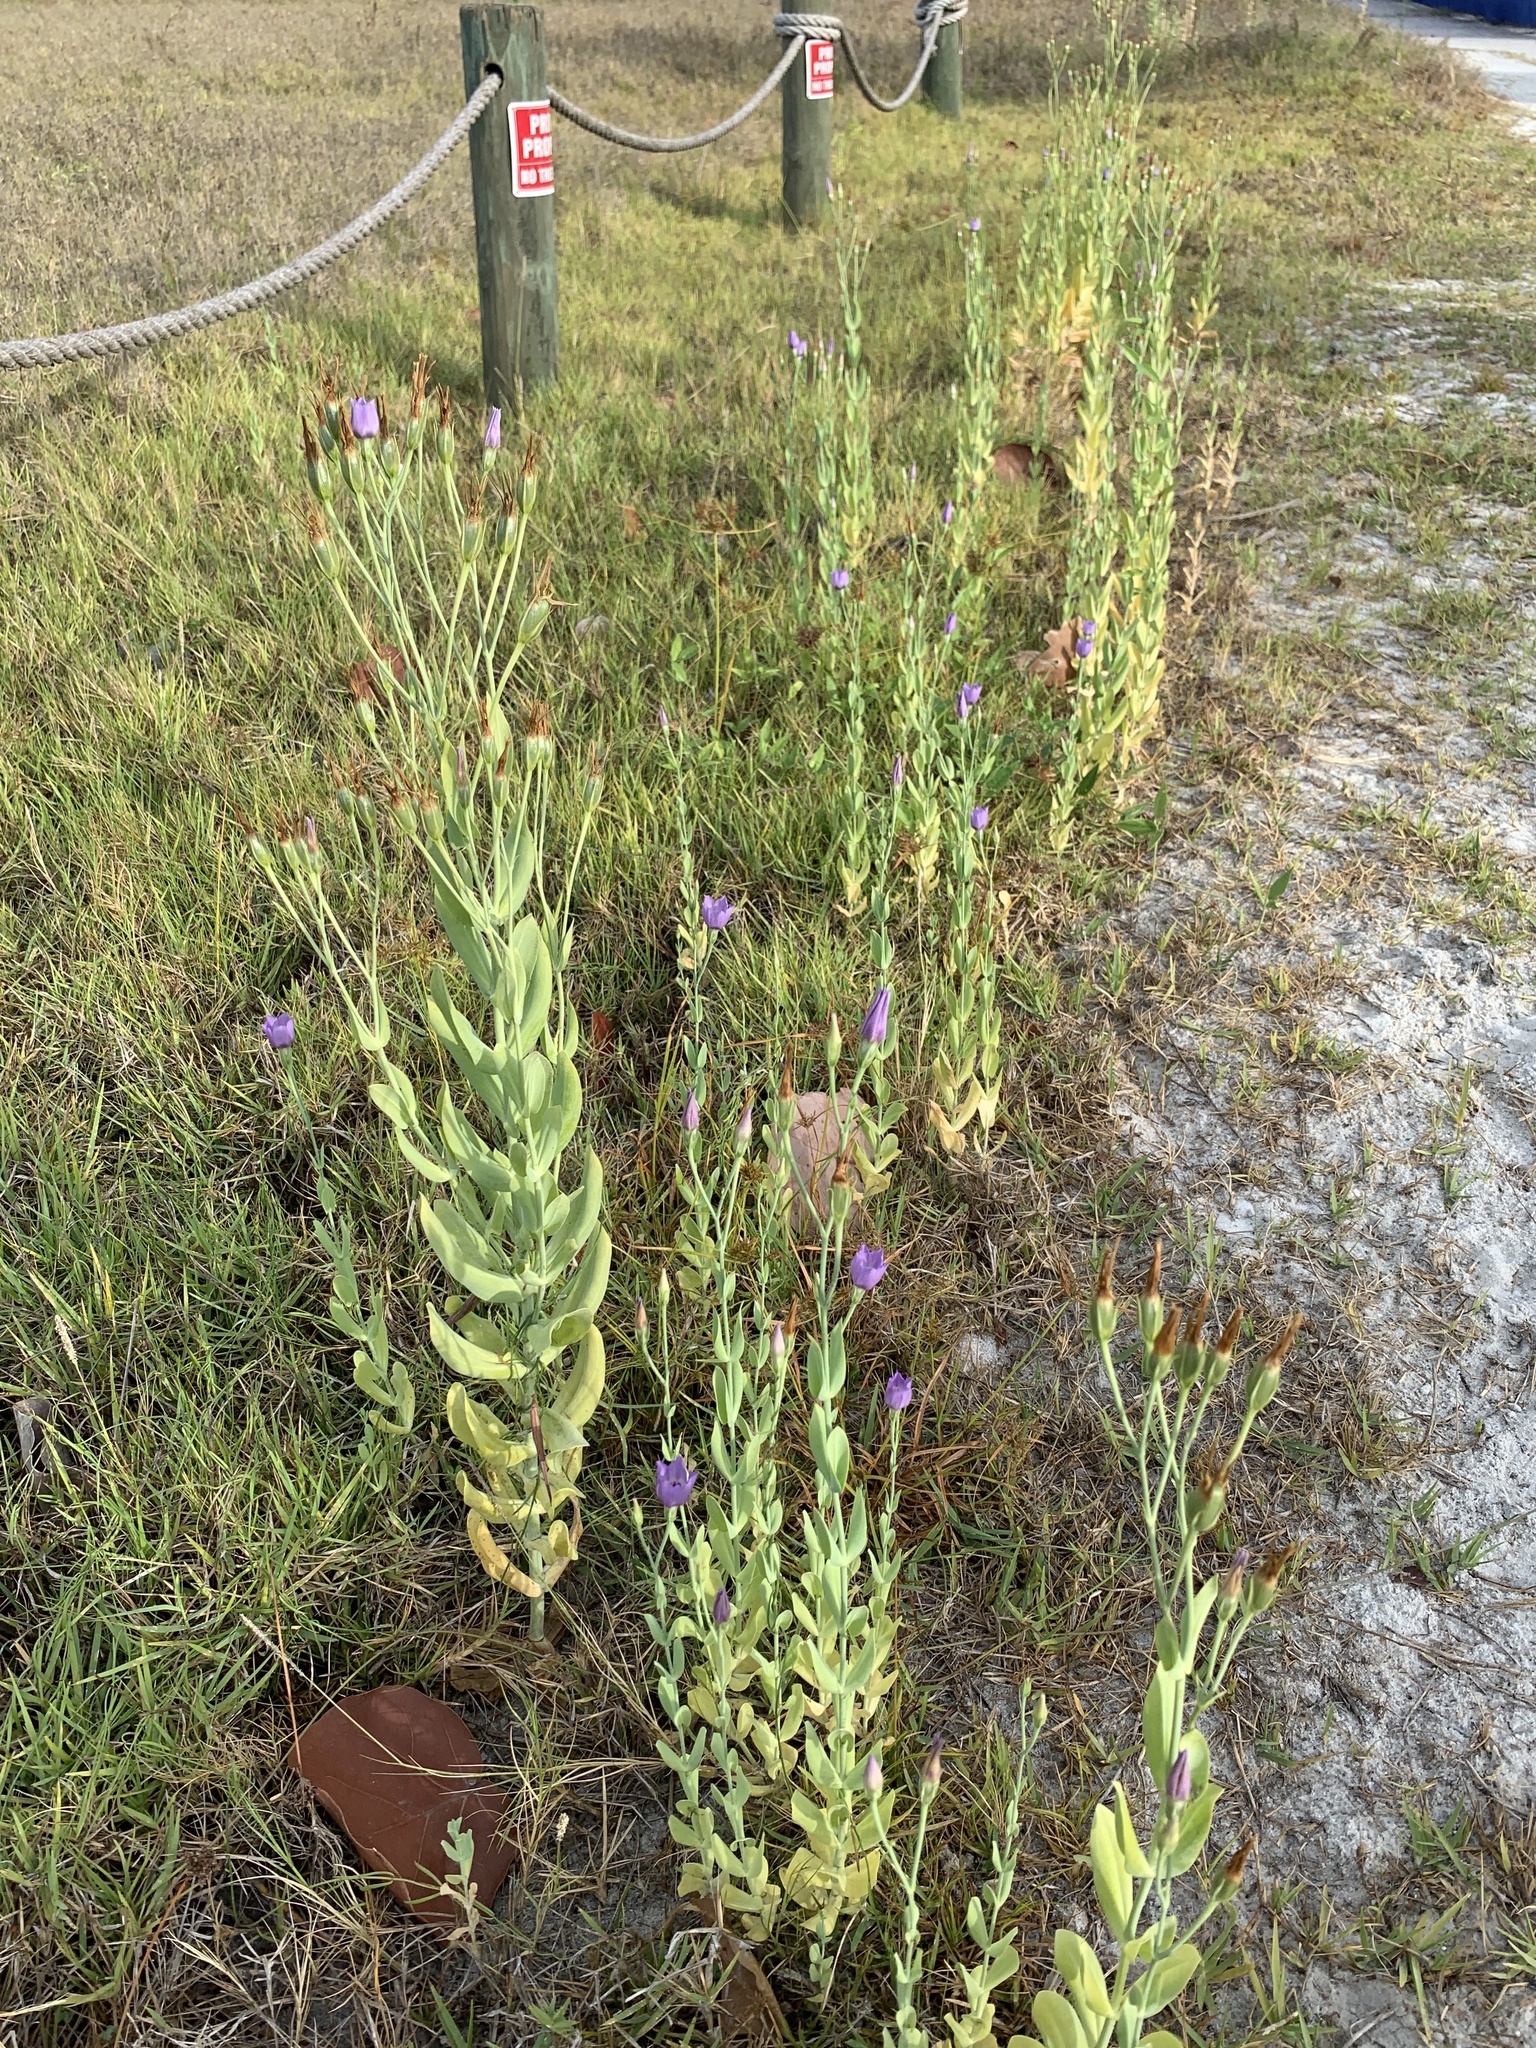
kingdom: Plantae
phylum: Tracheophyta
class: Magnoliopsida
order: Gentianales
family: Gentianaceae
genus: Eustoma
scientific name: Eustoma exaltatum
